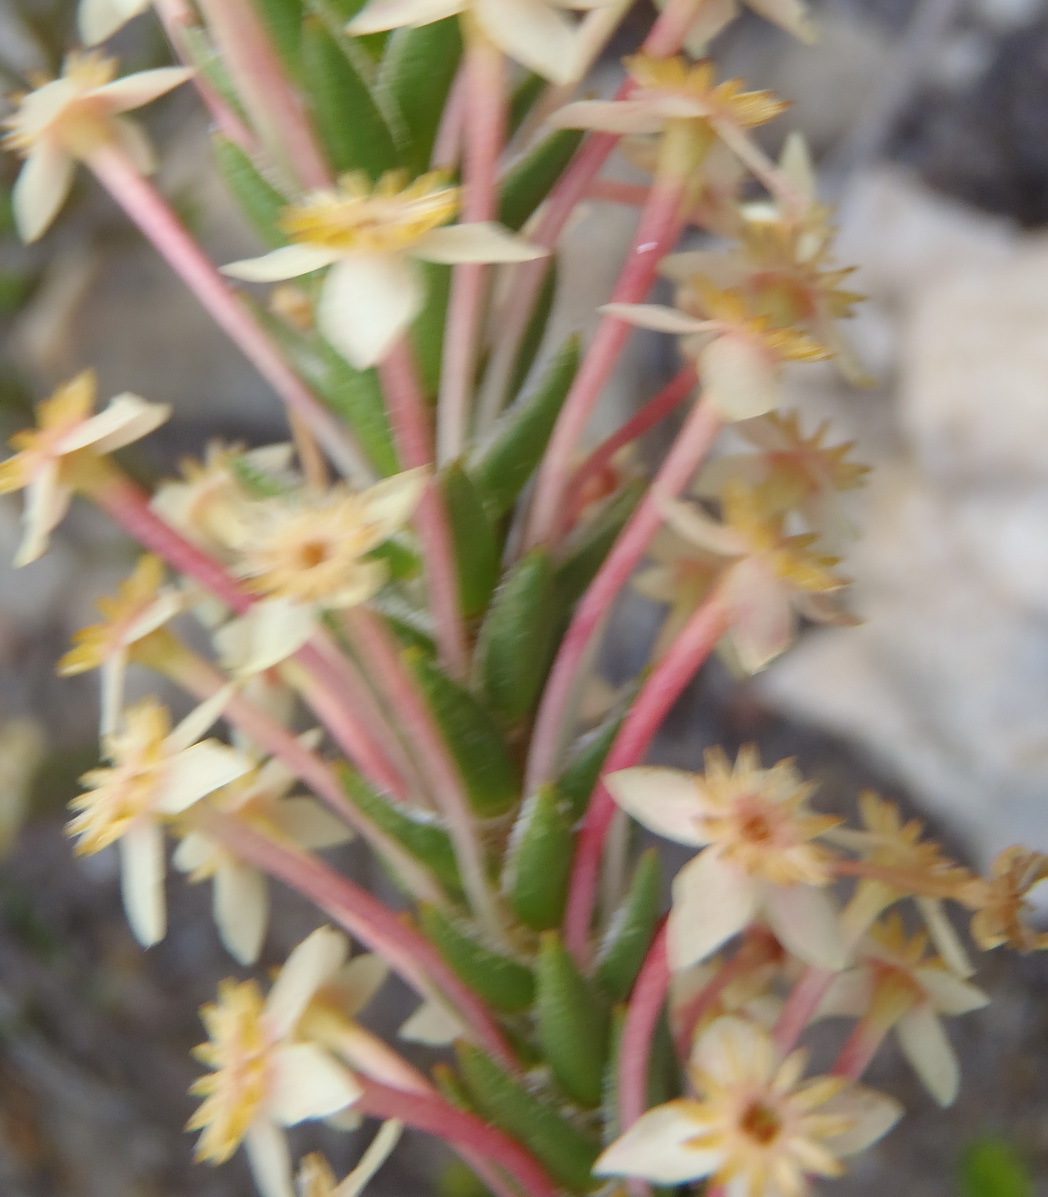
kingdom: Plantae
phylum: Tracheophyta
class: Magnoliopsida
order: Malvales
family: Thymelaeaceae
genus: Struthiola
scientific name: Struthiola rigida
